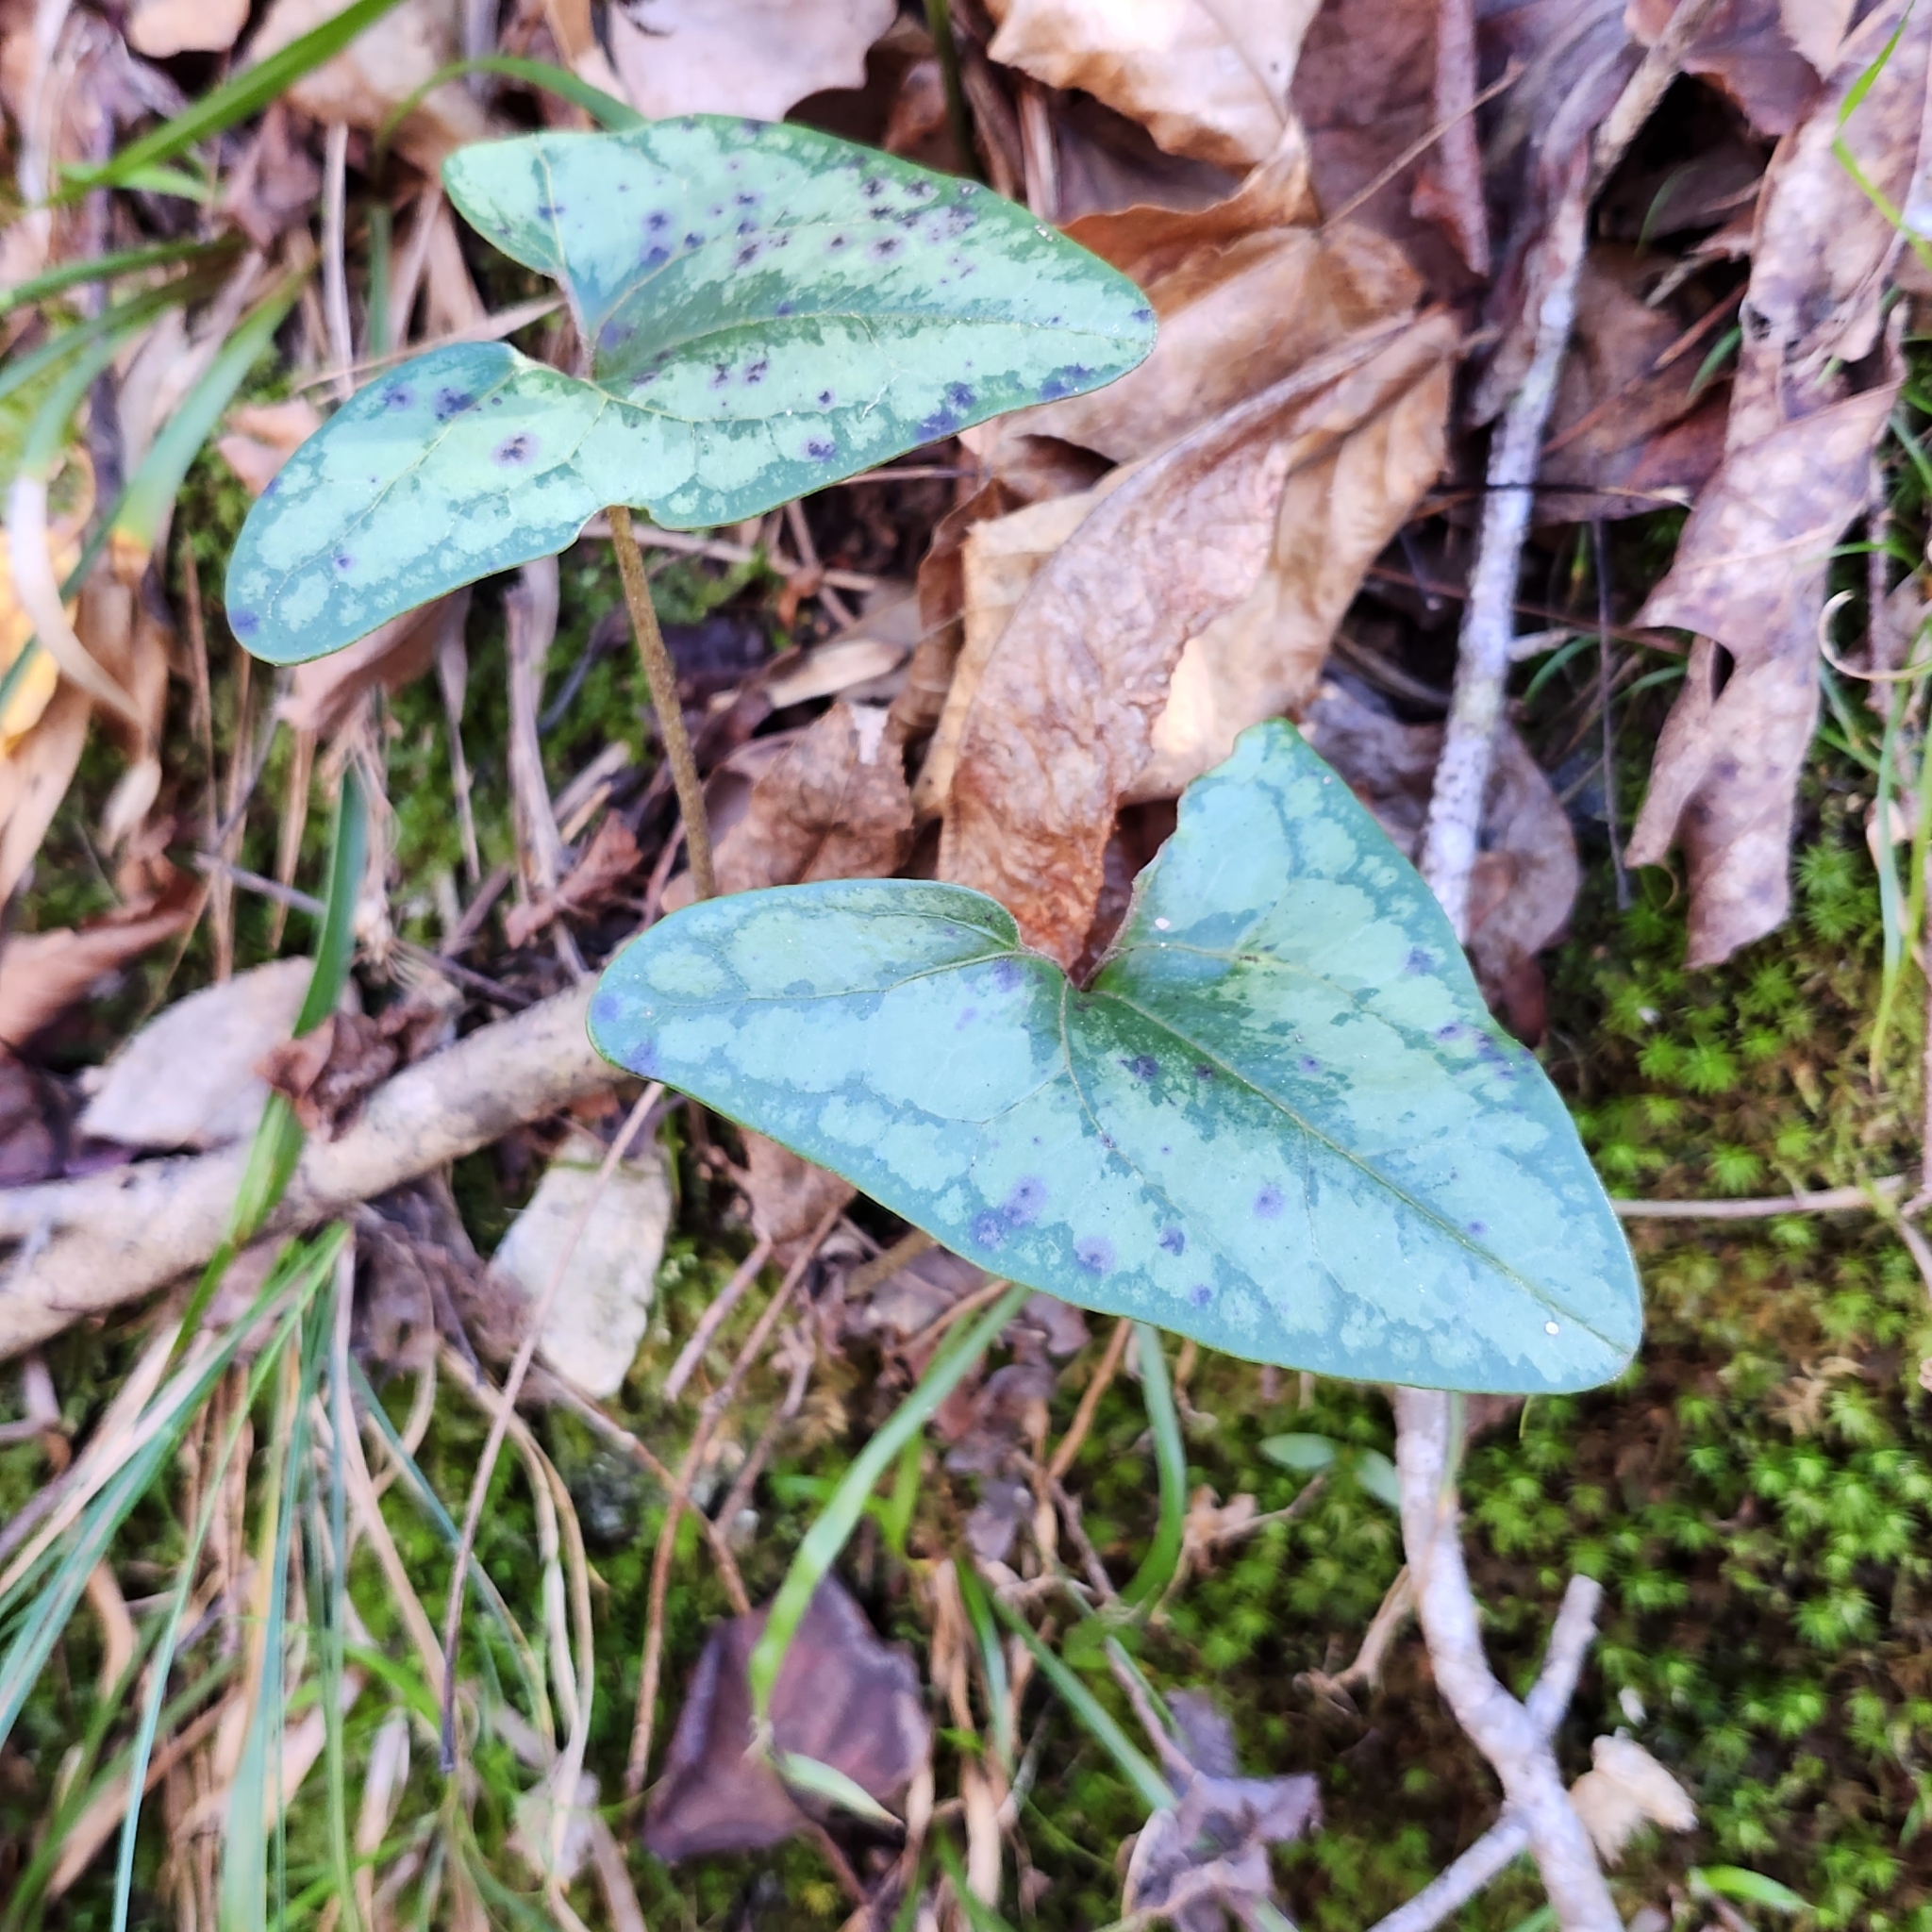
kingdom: Plantae
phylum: Tracheophyta
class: Magnoliopsida
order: Piperales
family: Aristolochiaceae
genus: Hexastylis
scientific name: Hexastylis arifolia
